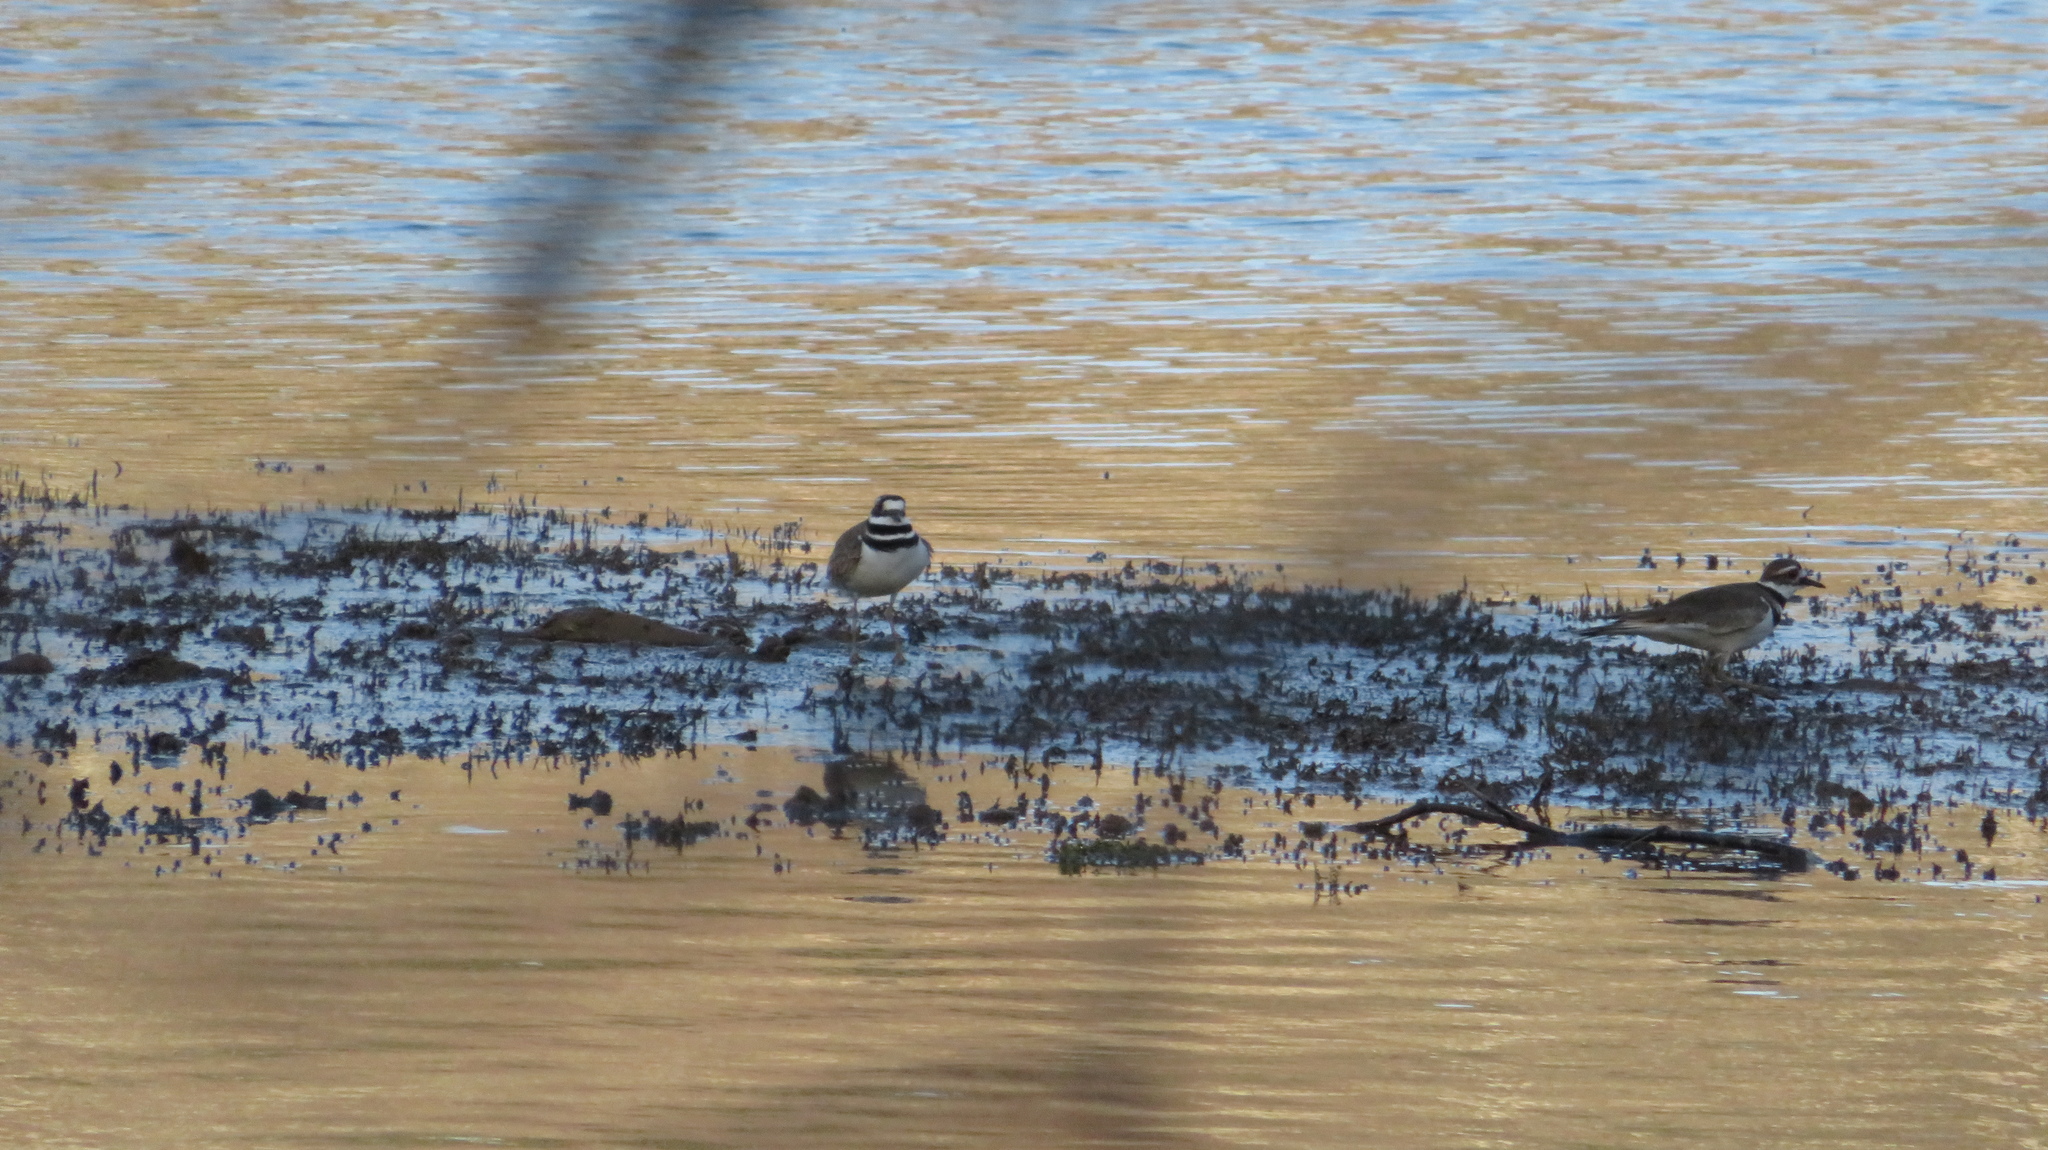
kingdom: Animalia
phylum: Chordata
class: Aves
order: Charadriiformes
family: Charadriidae
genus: Charadrius
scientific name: Charadrius vociferus
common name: Killdeer
